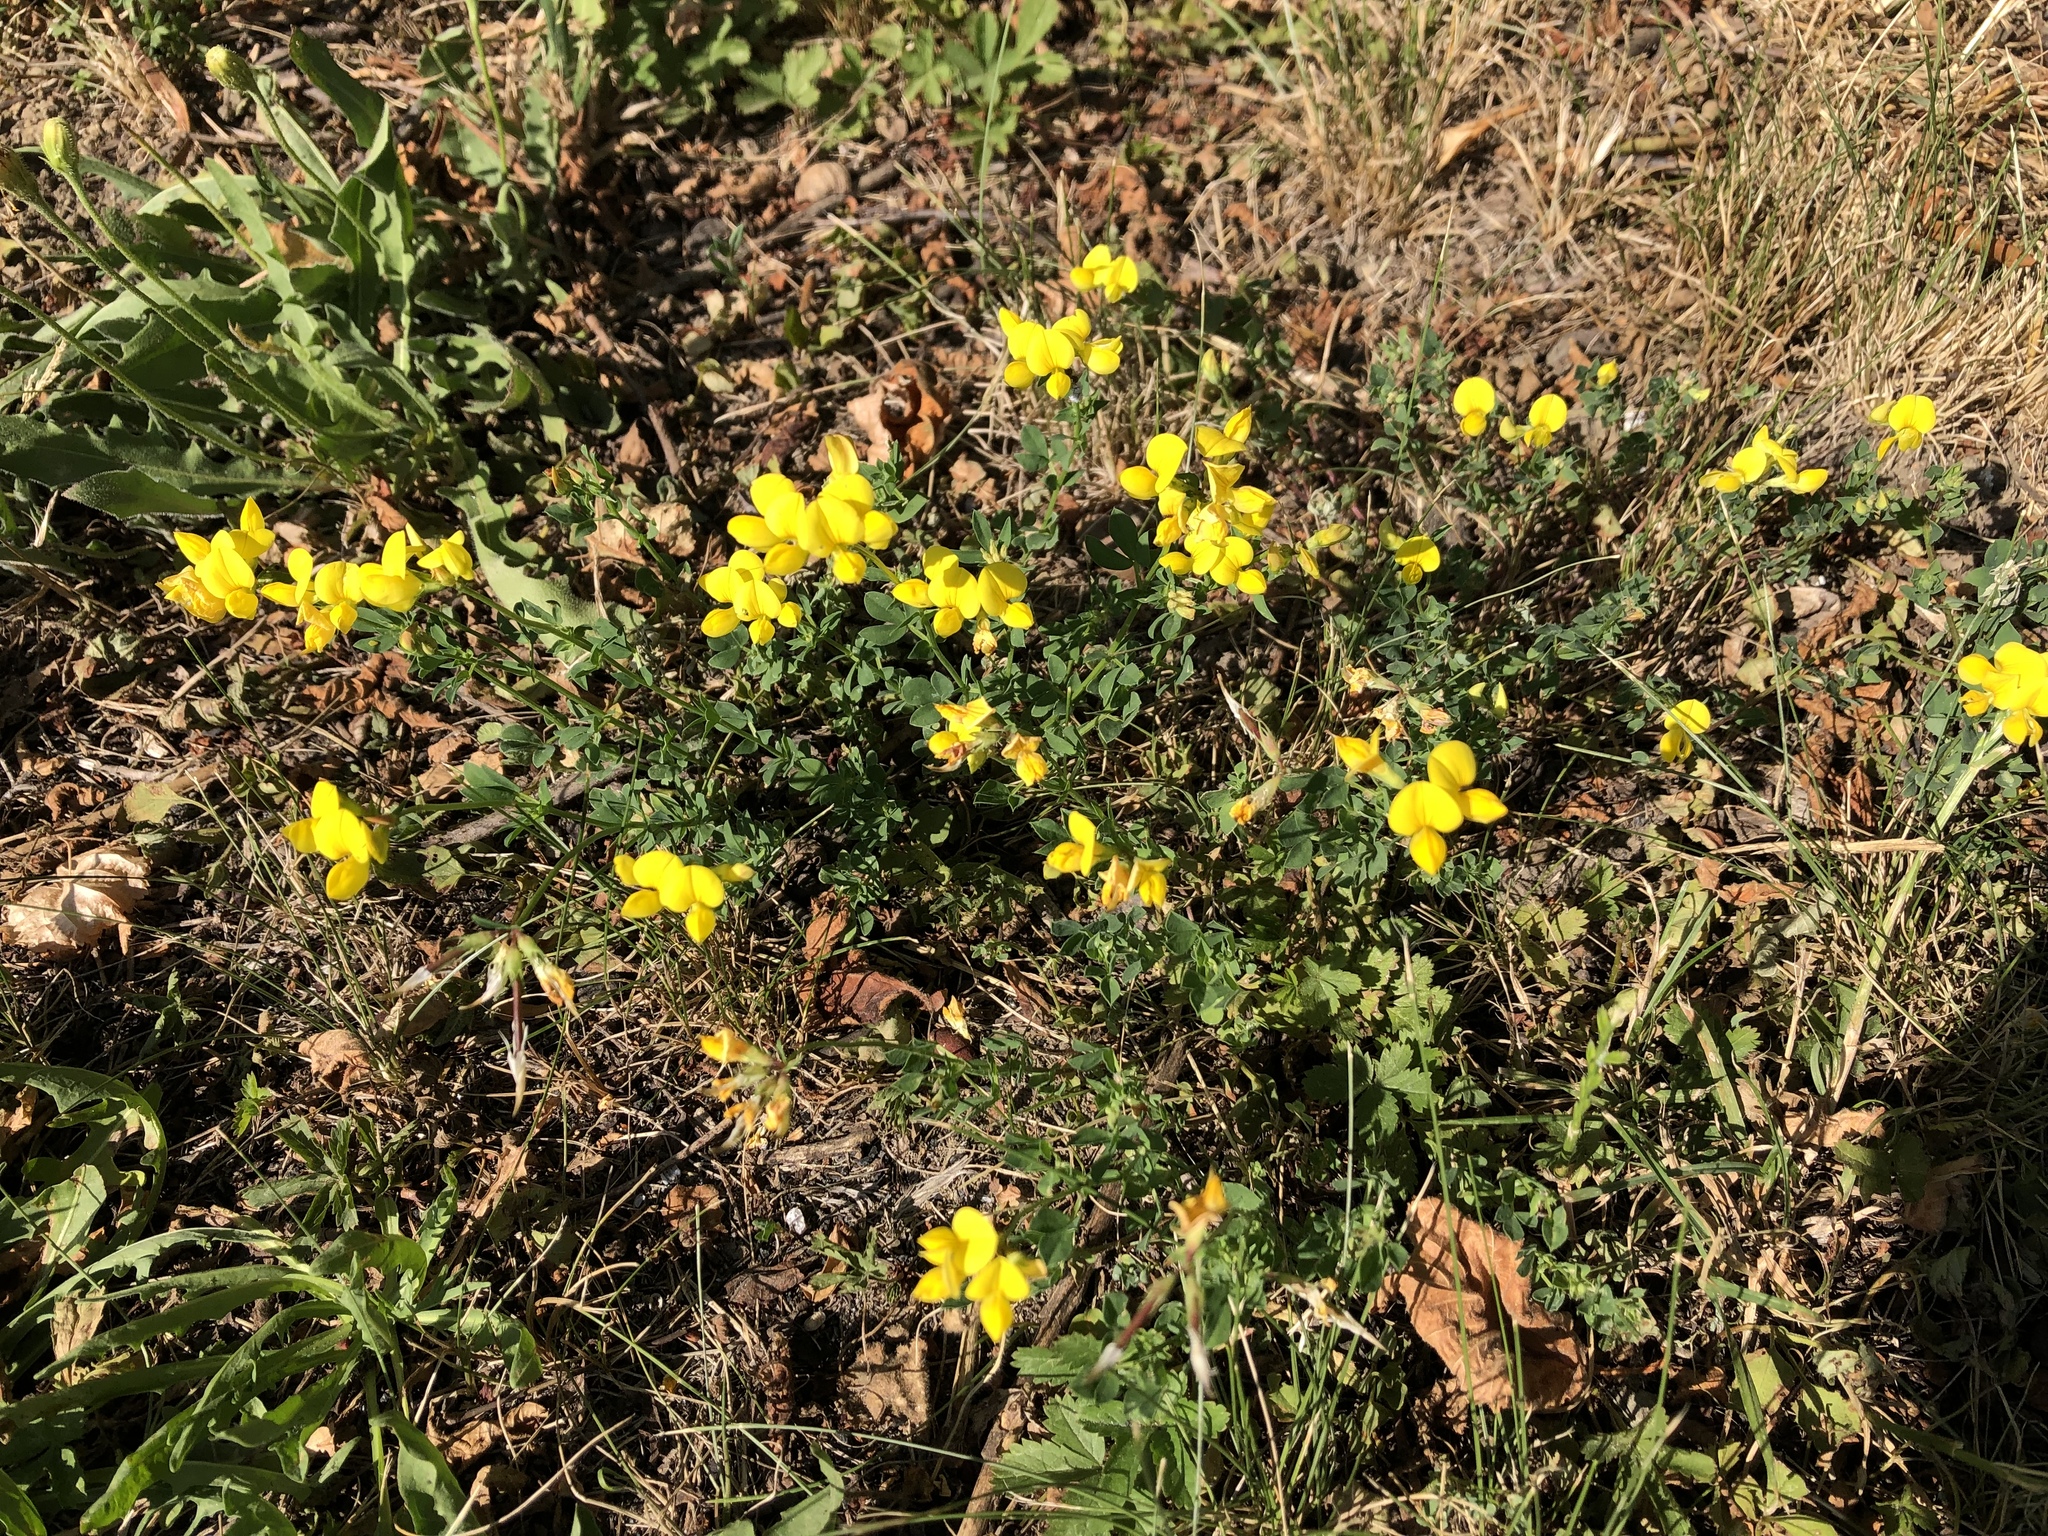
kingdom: Plantae
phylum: Tracheophyta
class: Magnoliopsida
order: Fabales
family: Fabaceae
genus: Lotus
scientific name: Lotus corniculatus
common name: Common bird's-foot-trefoil
